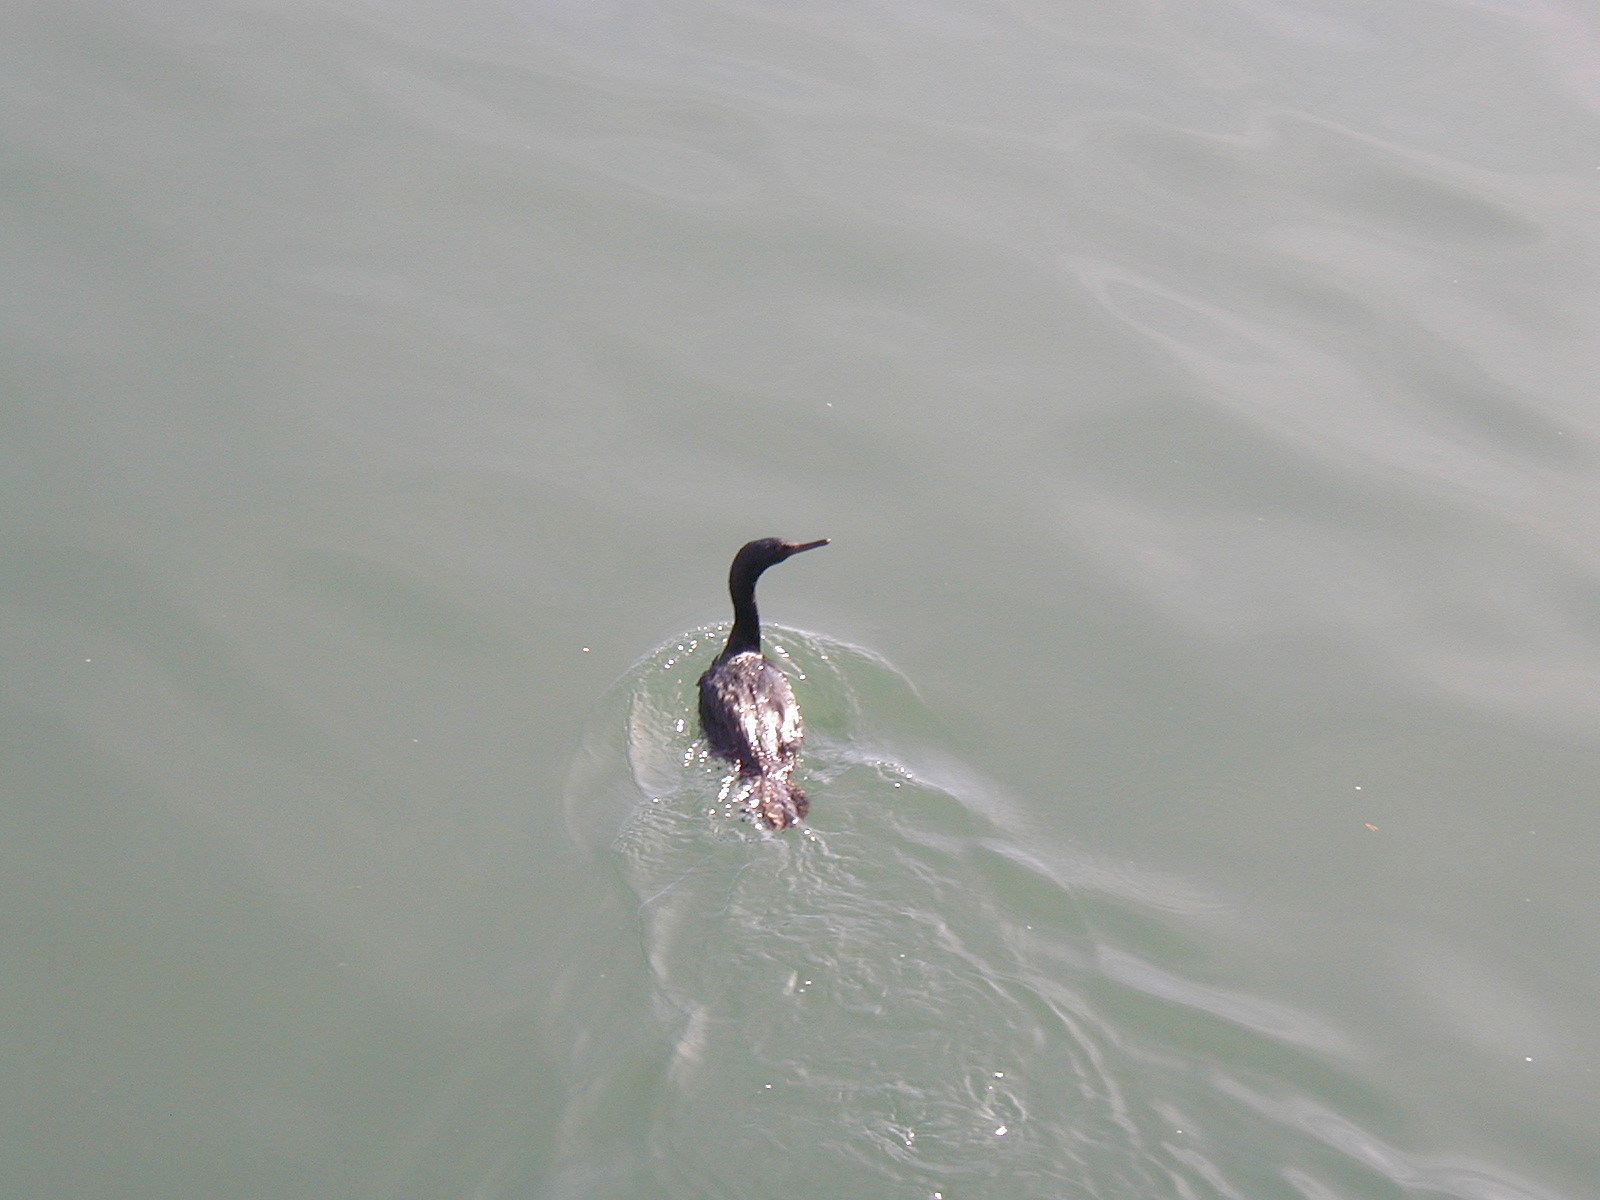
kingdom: Animalia
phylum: Chordata
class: Aves
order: Suliformes
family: Phalacrocoracidae
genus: Phalacrocorax
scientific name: Phalacrocorax pelagicus
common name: Pelagic cormorant
